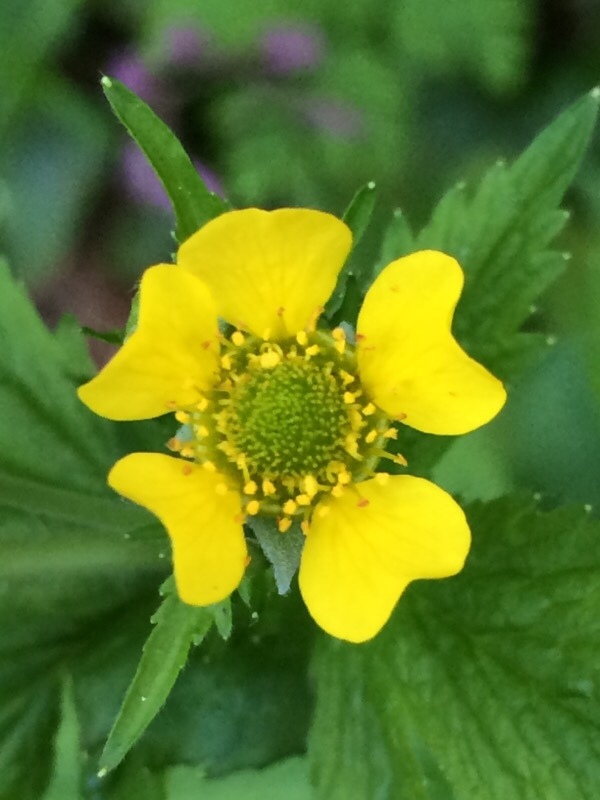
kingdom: Plantae
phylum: Tracheophyta
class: Magnoliopsida
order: Rosales
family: Rosaceae
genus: Geum
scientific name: Geum macrophyllum
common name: Large-leaved avens
